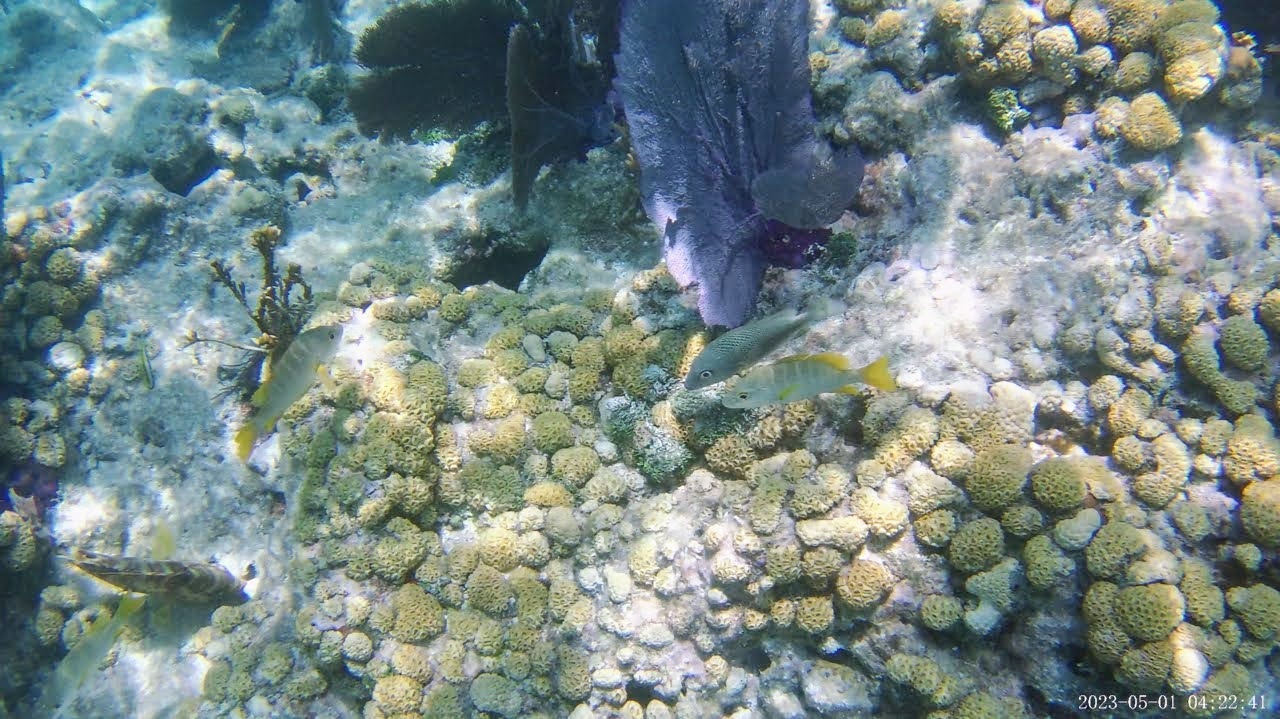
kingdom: Animalia
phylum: Chordata
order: Perciformes
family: Lutjanidae
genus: Lutjanus
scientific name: Lutjanus apodus
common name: Schoolmaster
